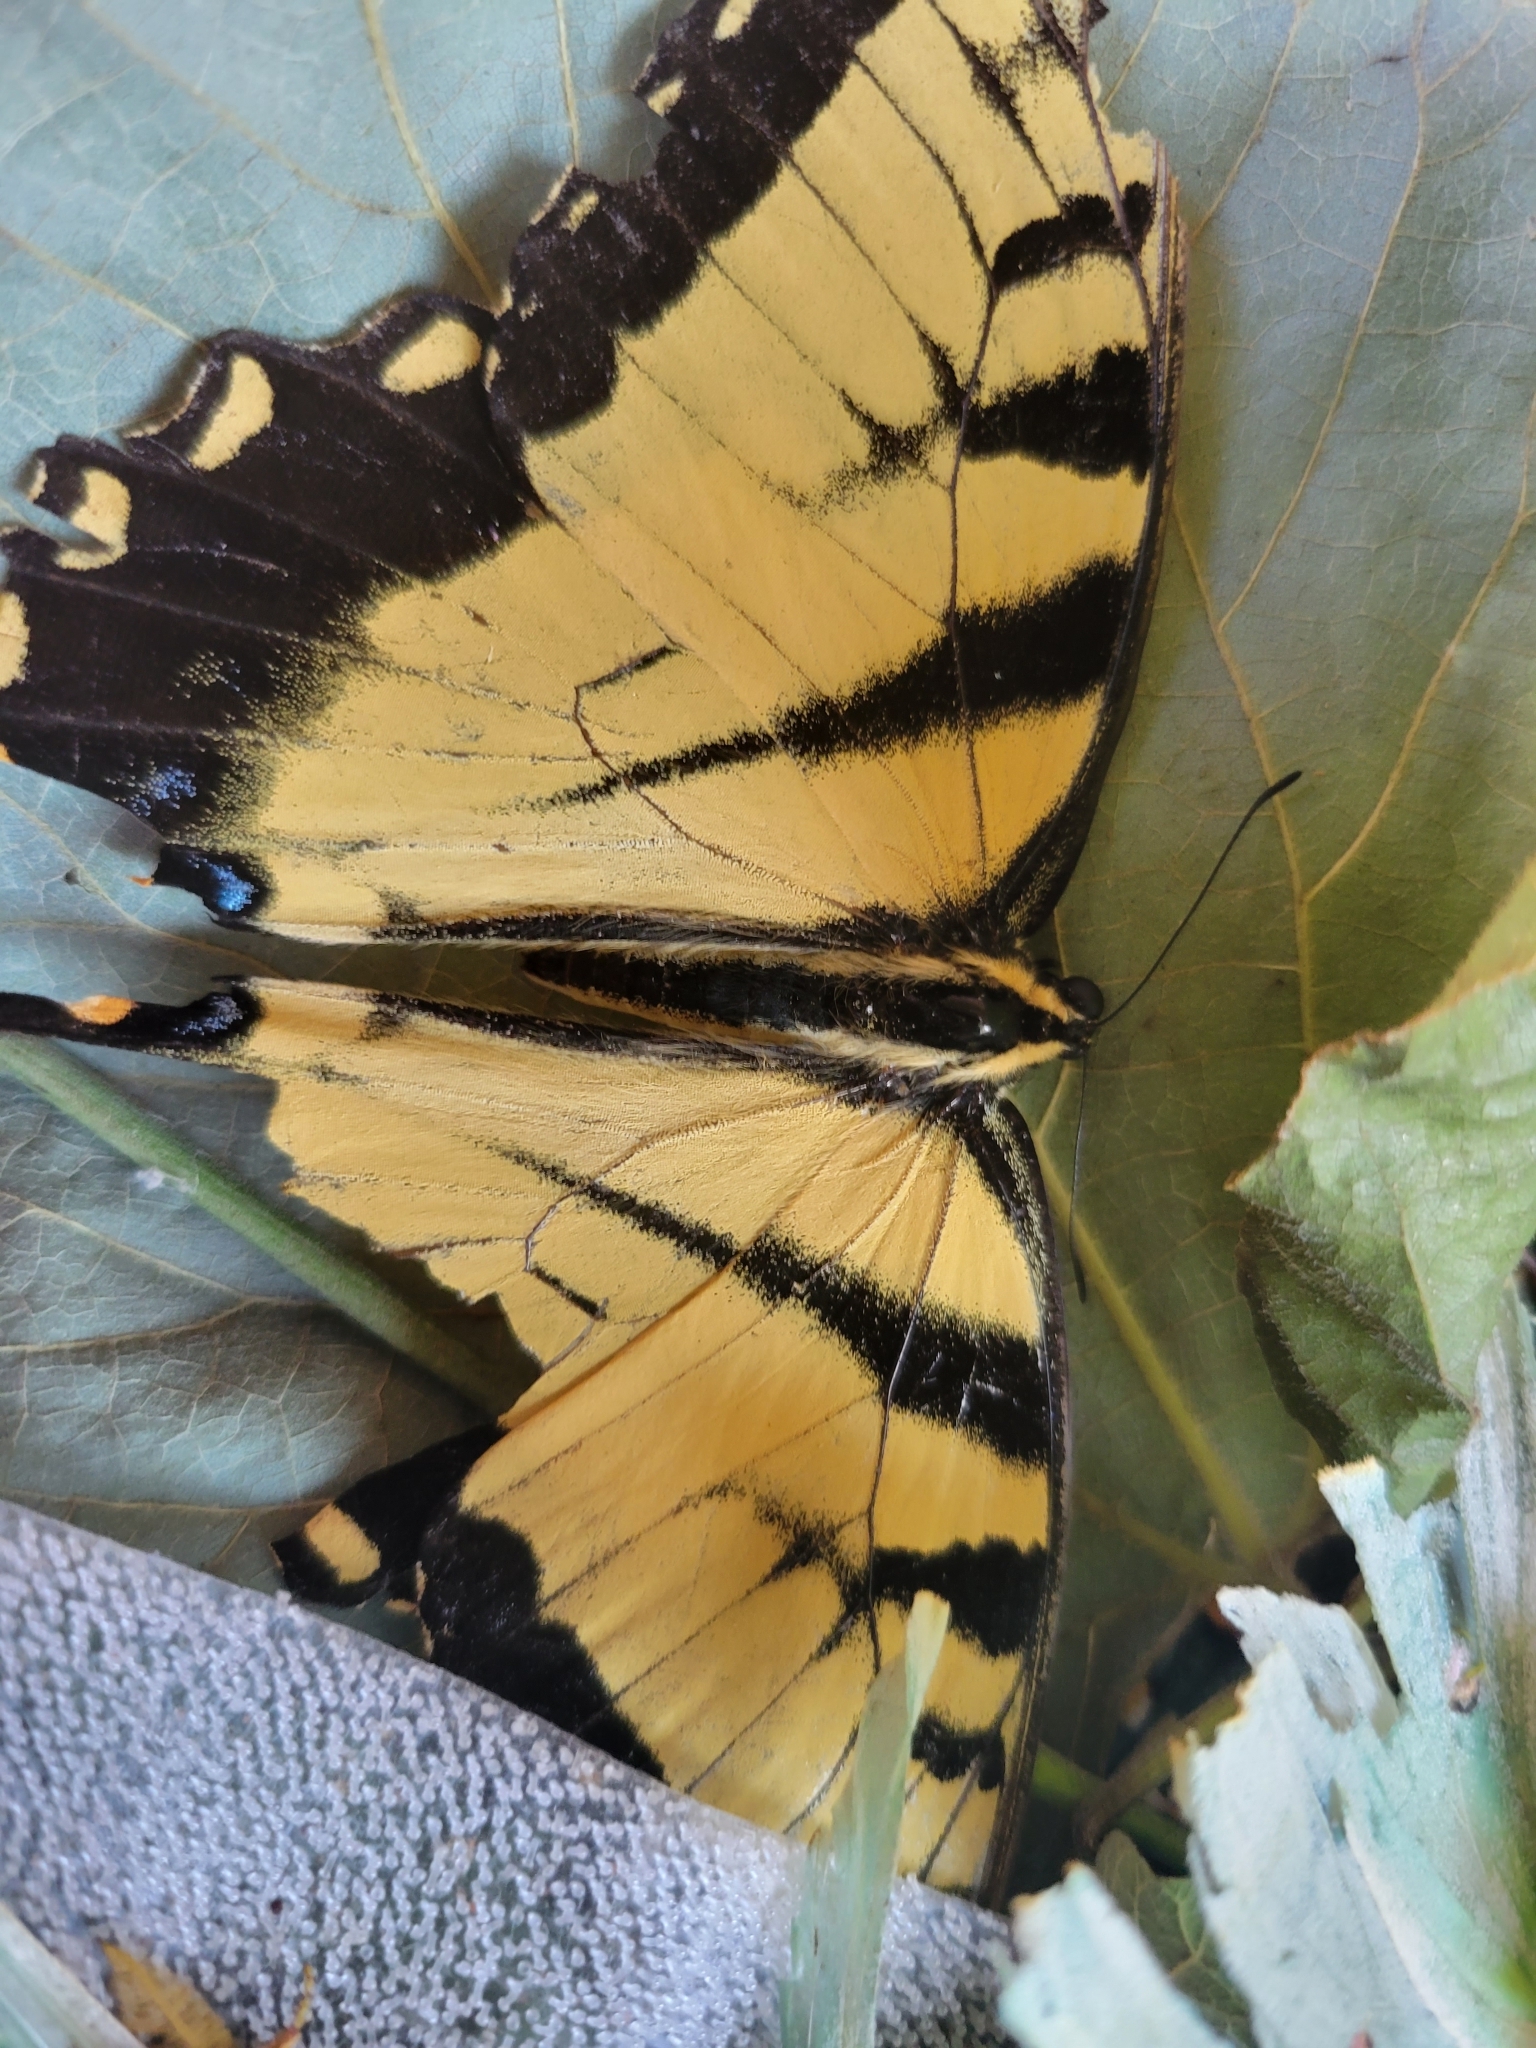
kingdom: Animalia
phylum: Arthropoda
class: Insecta
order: Lepidoptera
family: Papilionidae
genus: Papilio
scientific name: Papilio glaucus
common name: Tiger swallowtail
